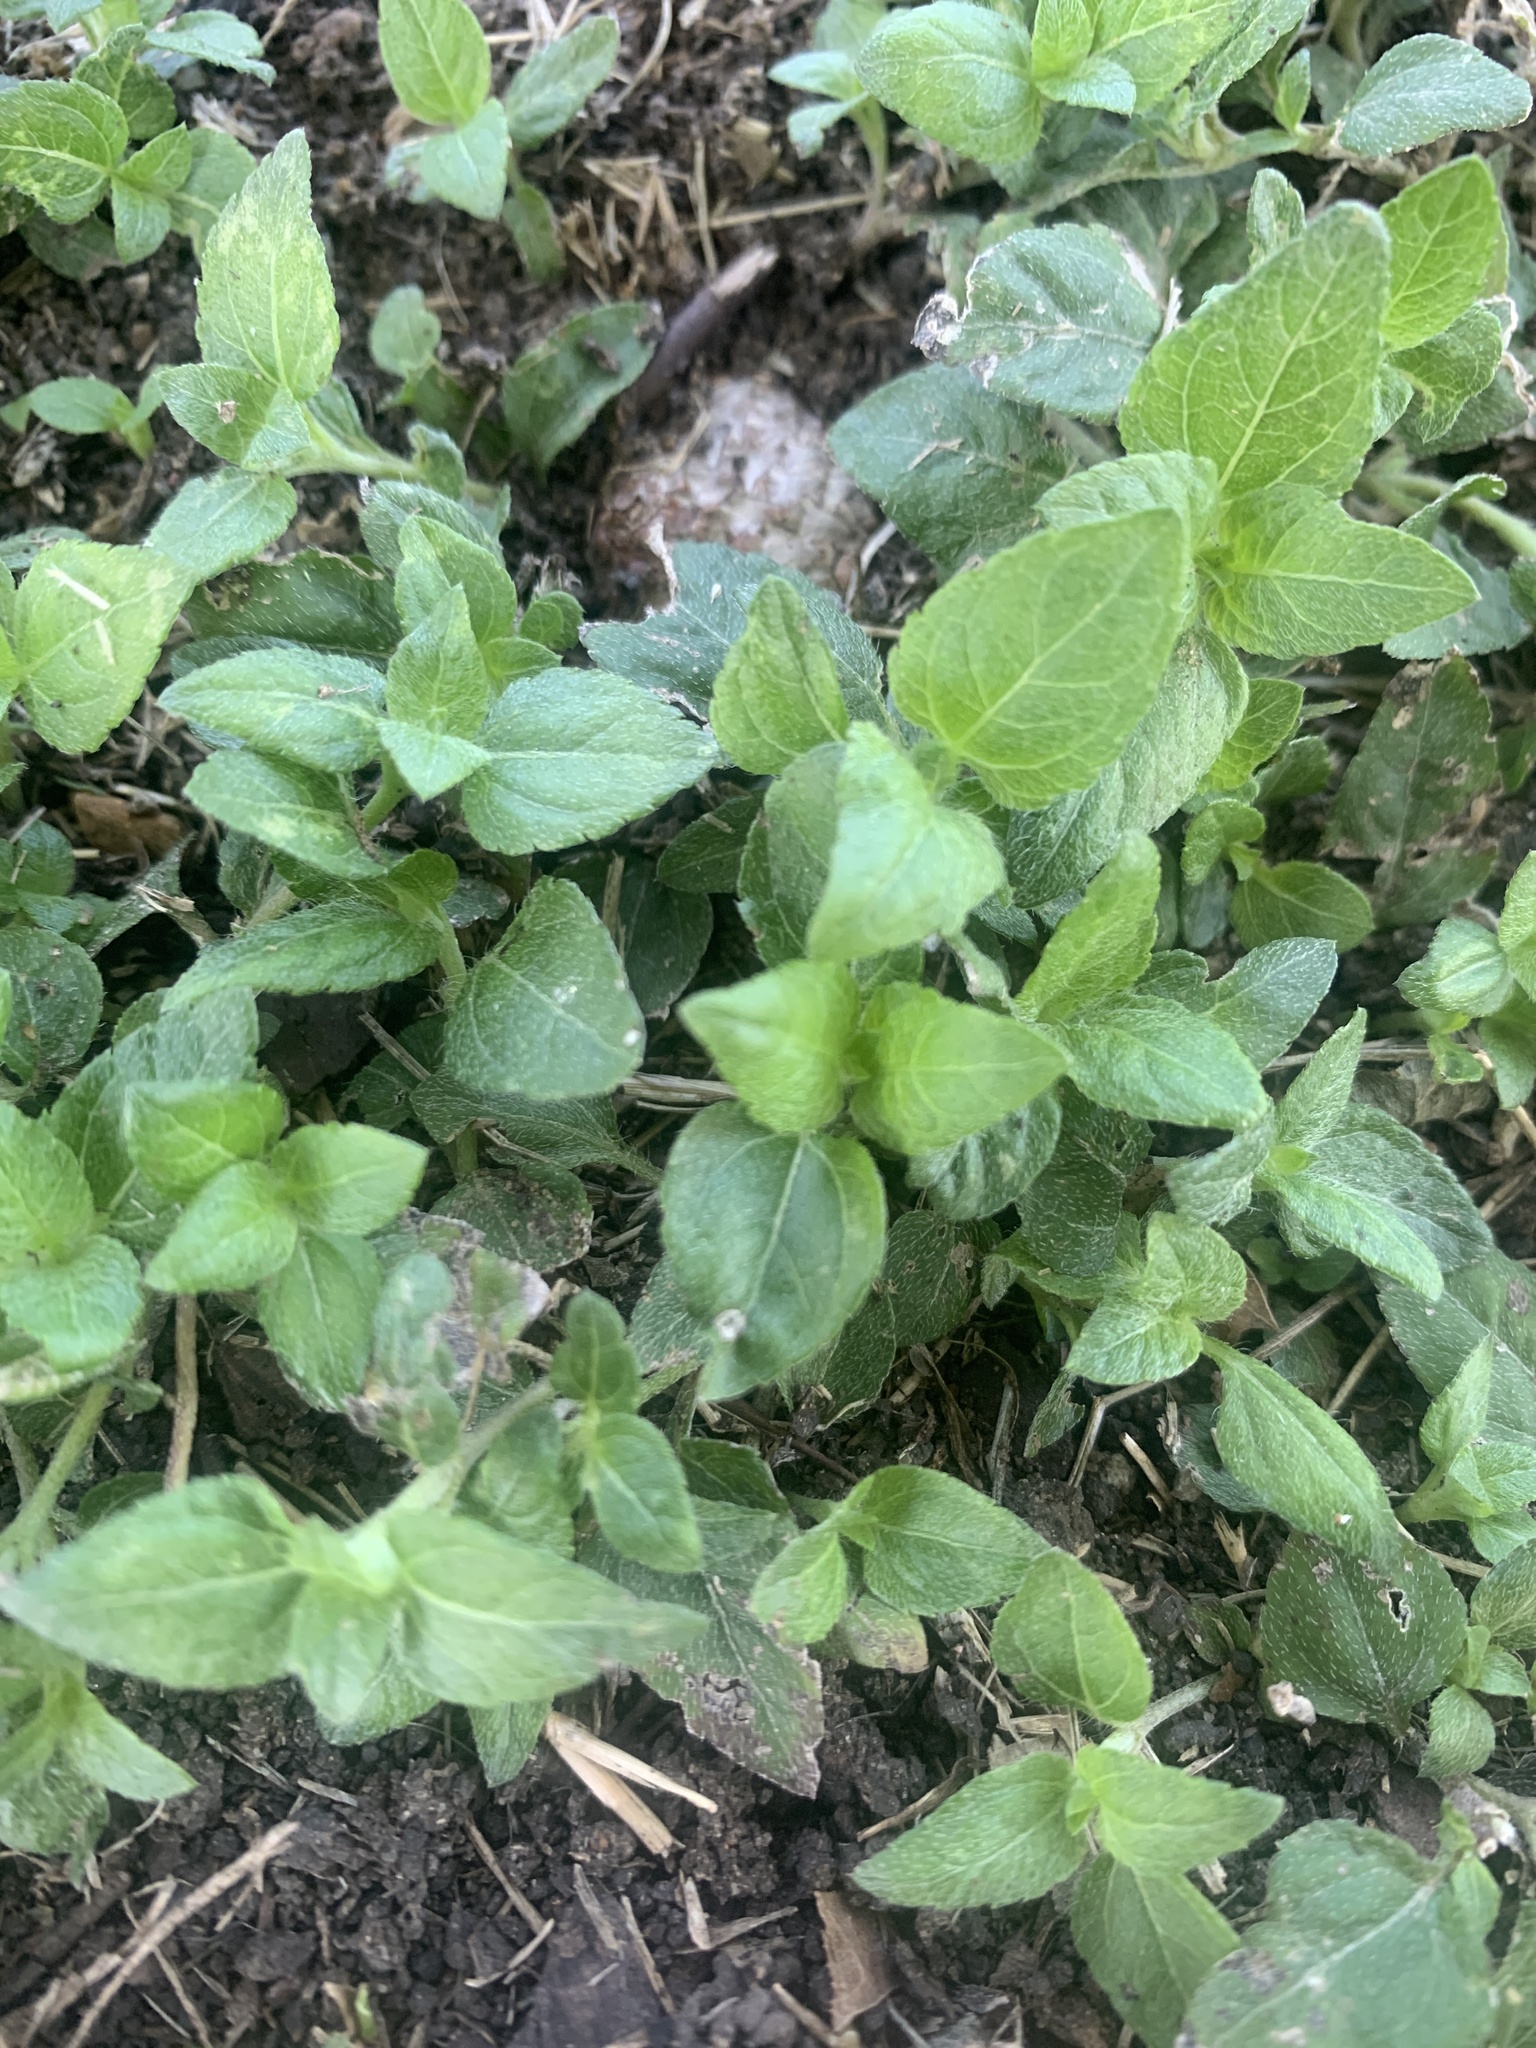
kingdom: Plantae
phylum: Tracheophyta
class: Magnoliopsida
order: Asterales
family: Asteraceae
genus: Calyptocarpus
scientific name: Calyptocarpus vialis
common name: Straggler daisy
